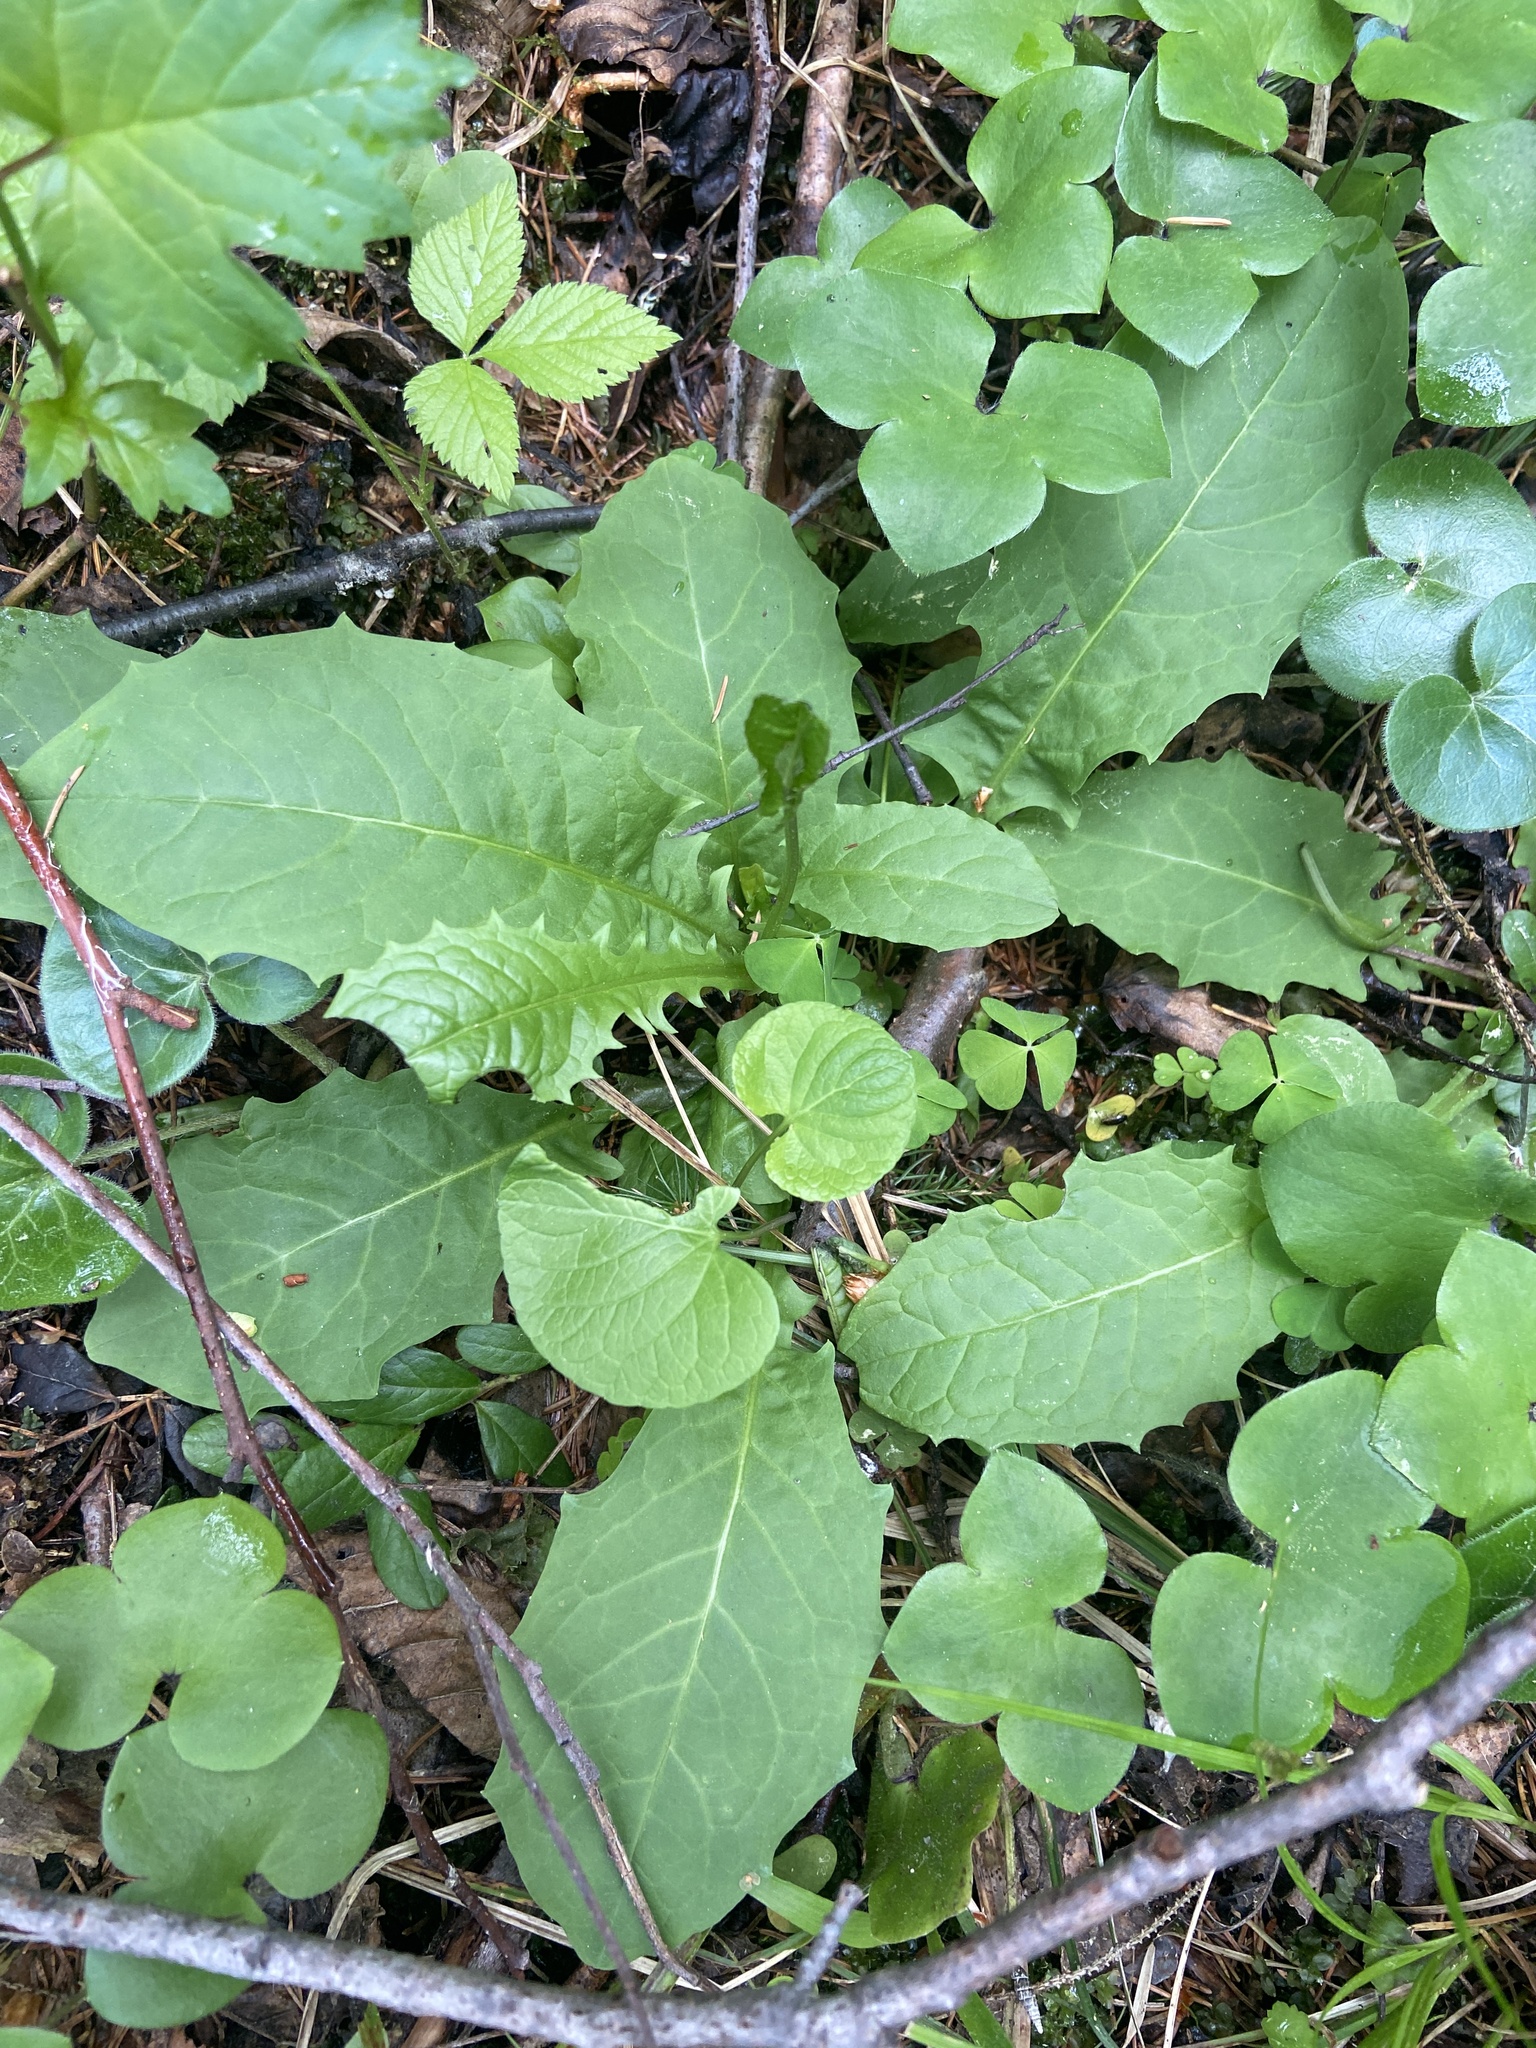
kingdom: Plantae
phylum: Tracheophyta
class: Magnoliopsida
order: Asterales
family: Asteraceae
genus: Crepis
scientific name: Crepis paludosa
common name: Marsh hawk's-beard
